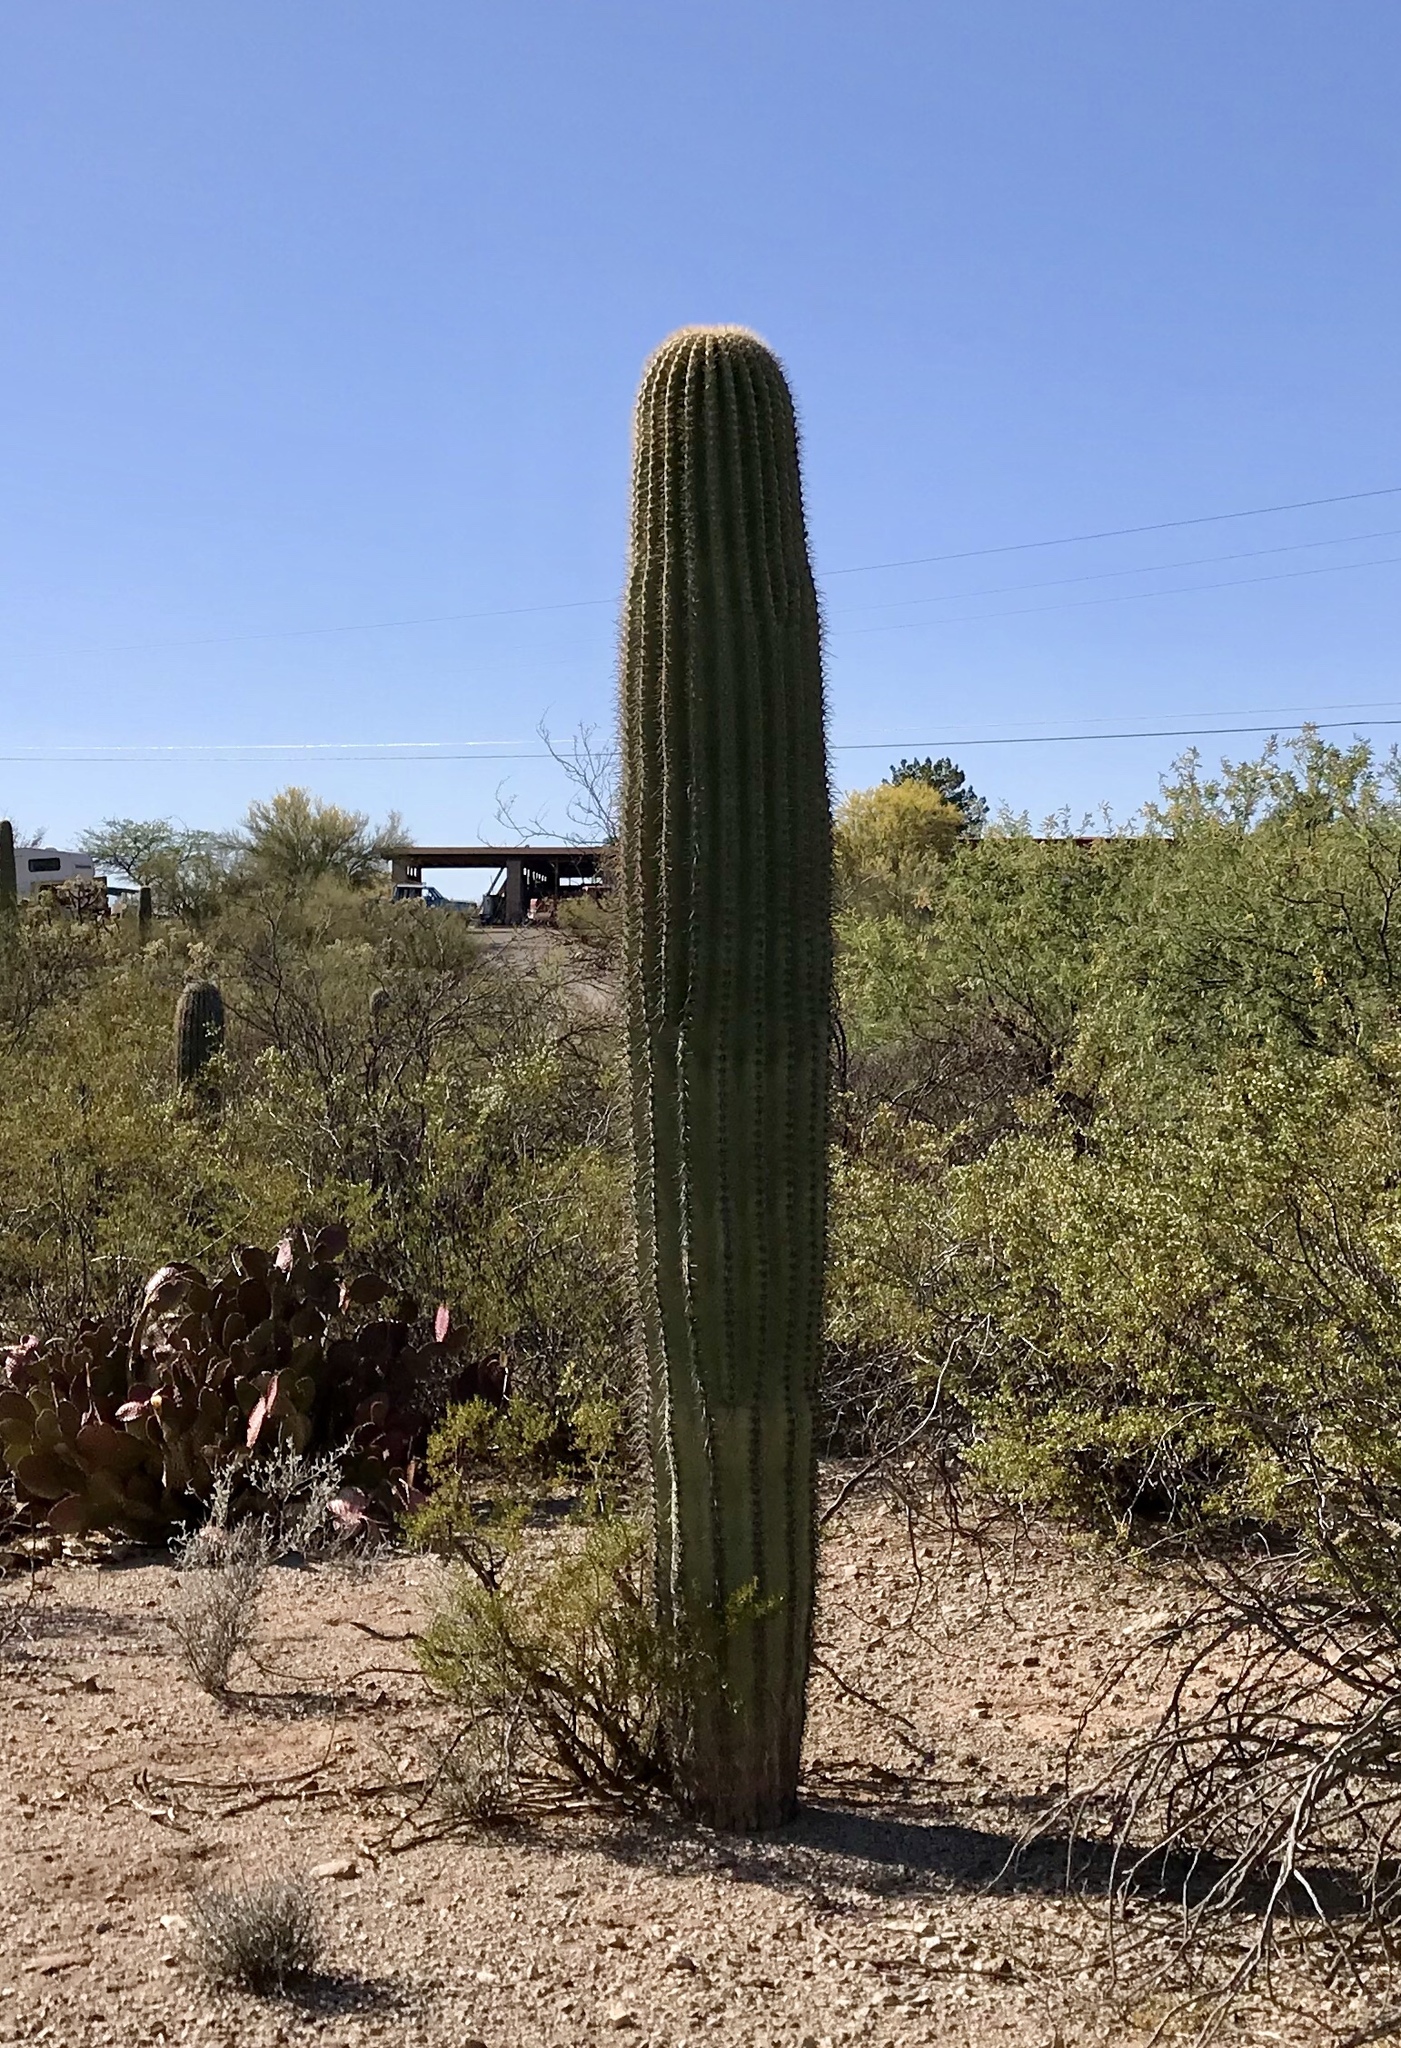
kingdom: Plantae
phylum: Tracheophyta
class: Magnoliopsida
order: Caryophyllales
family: Cactaceae
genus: Carnegiea
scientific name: Carnegiea gigantea
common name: Saguaro
